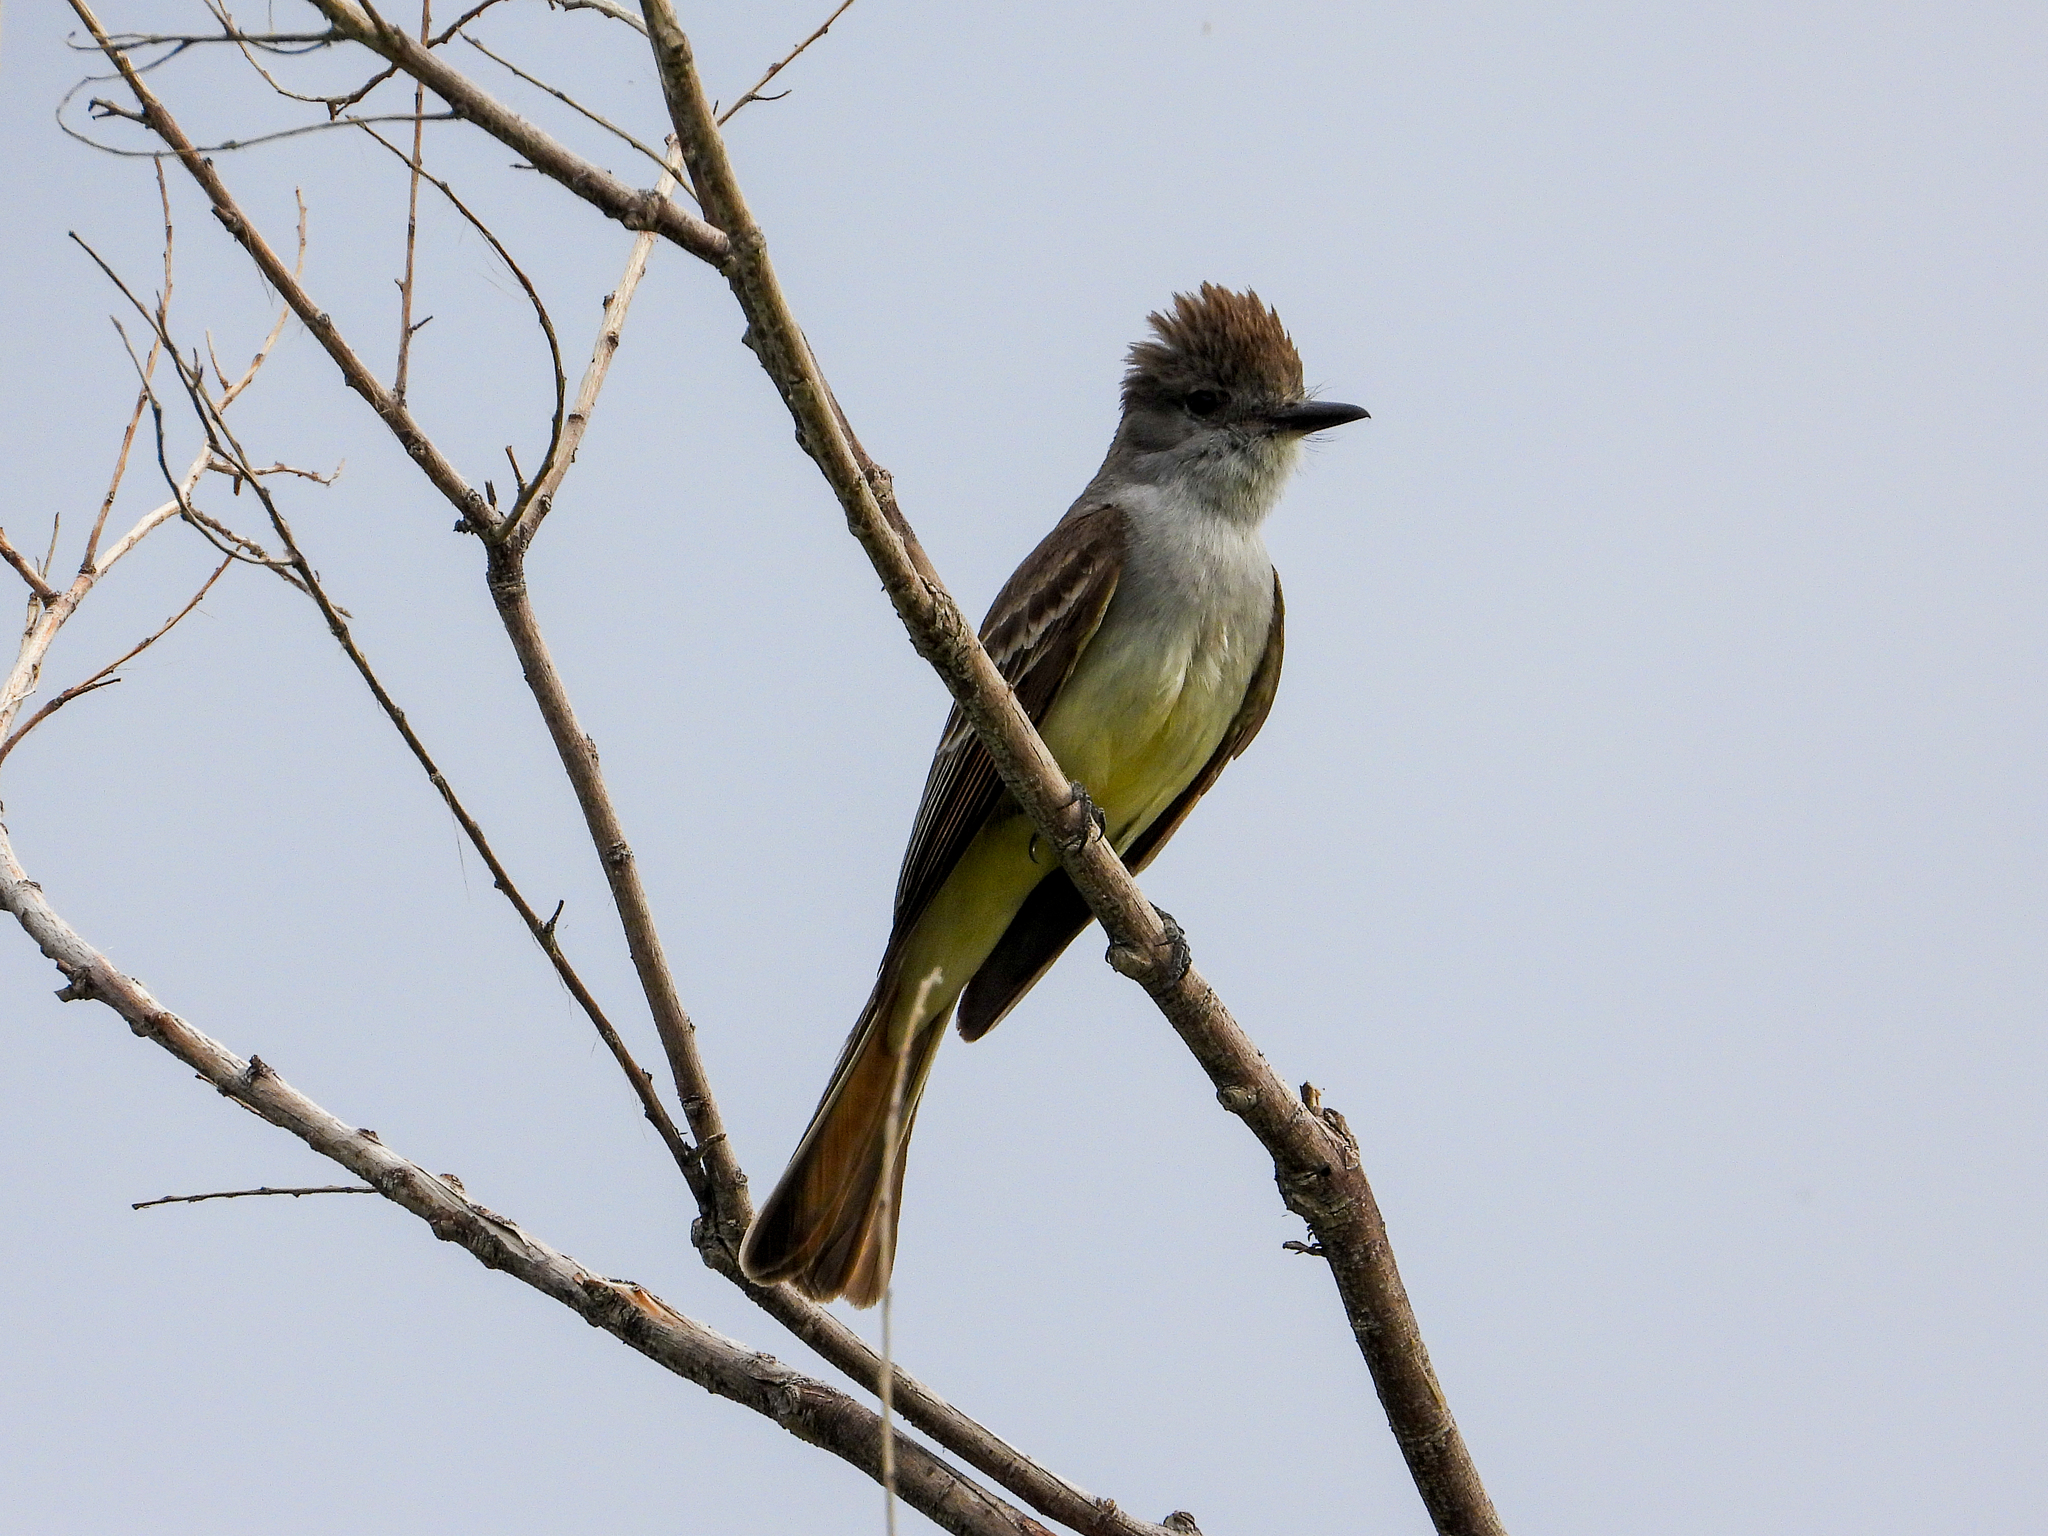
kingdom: Animalia
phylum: Chordata
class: Aves
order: Passeriformes
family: Tyrannidae
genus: Myiarchus
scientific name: Myiarchus cinerascens
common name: Ash-throated flycatcher
